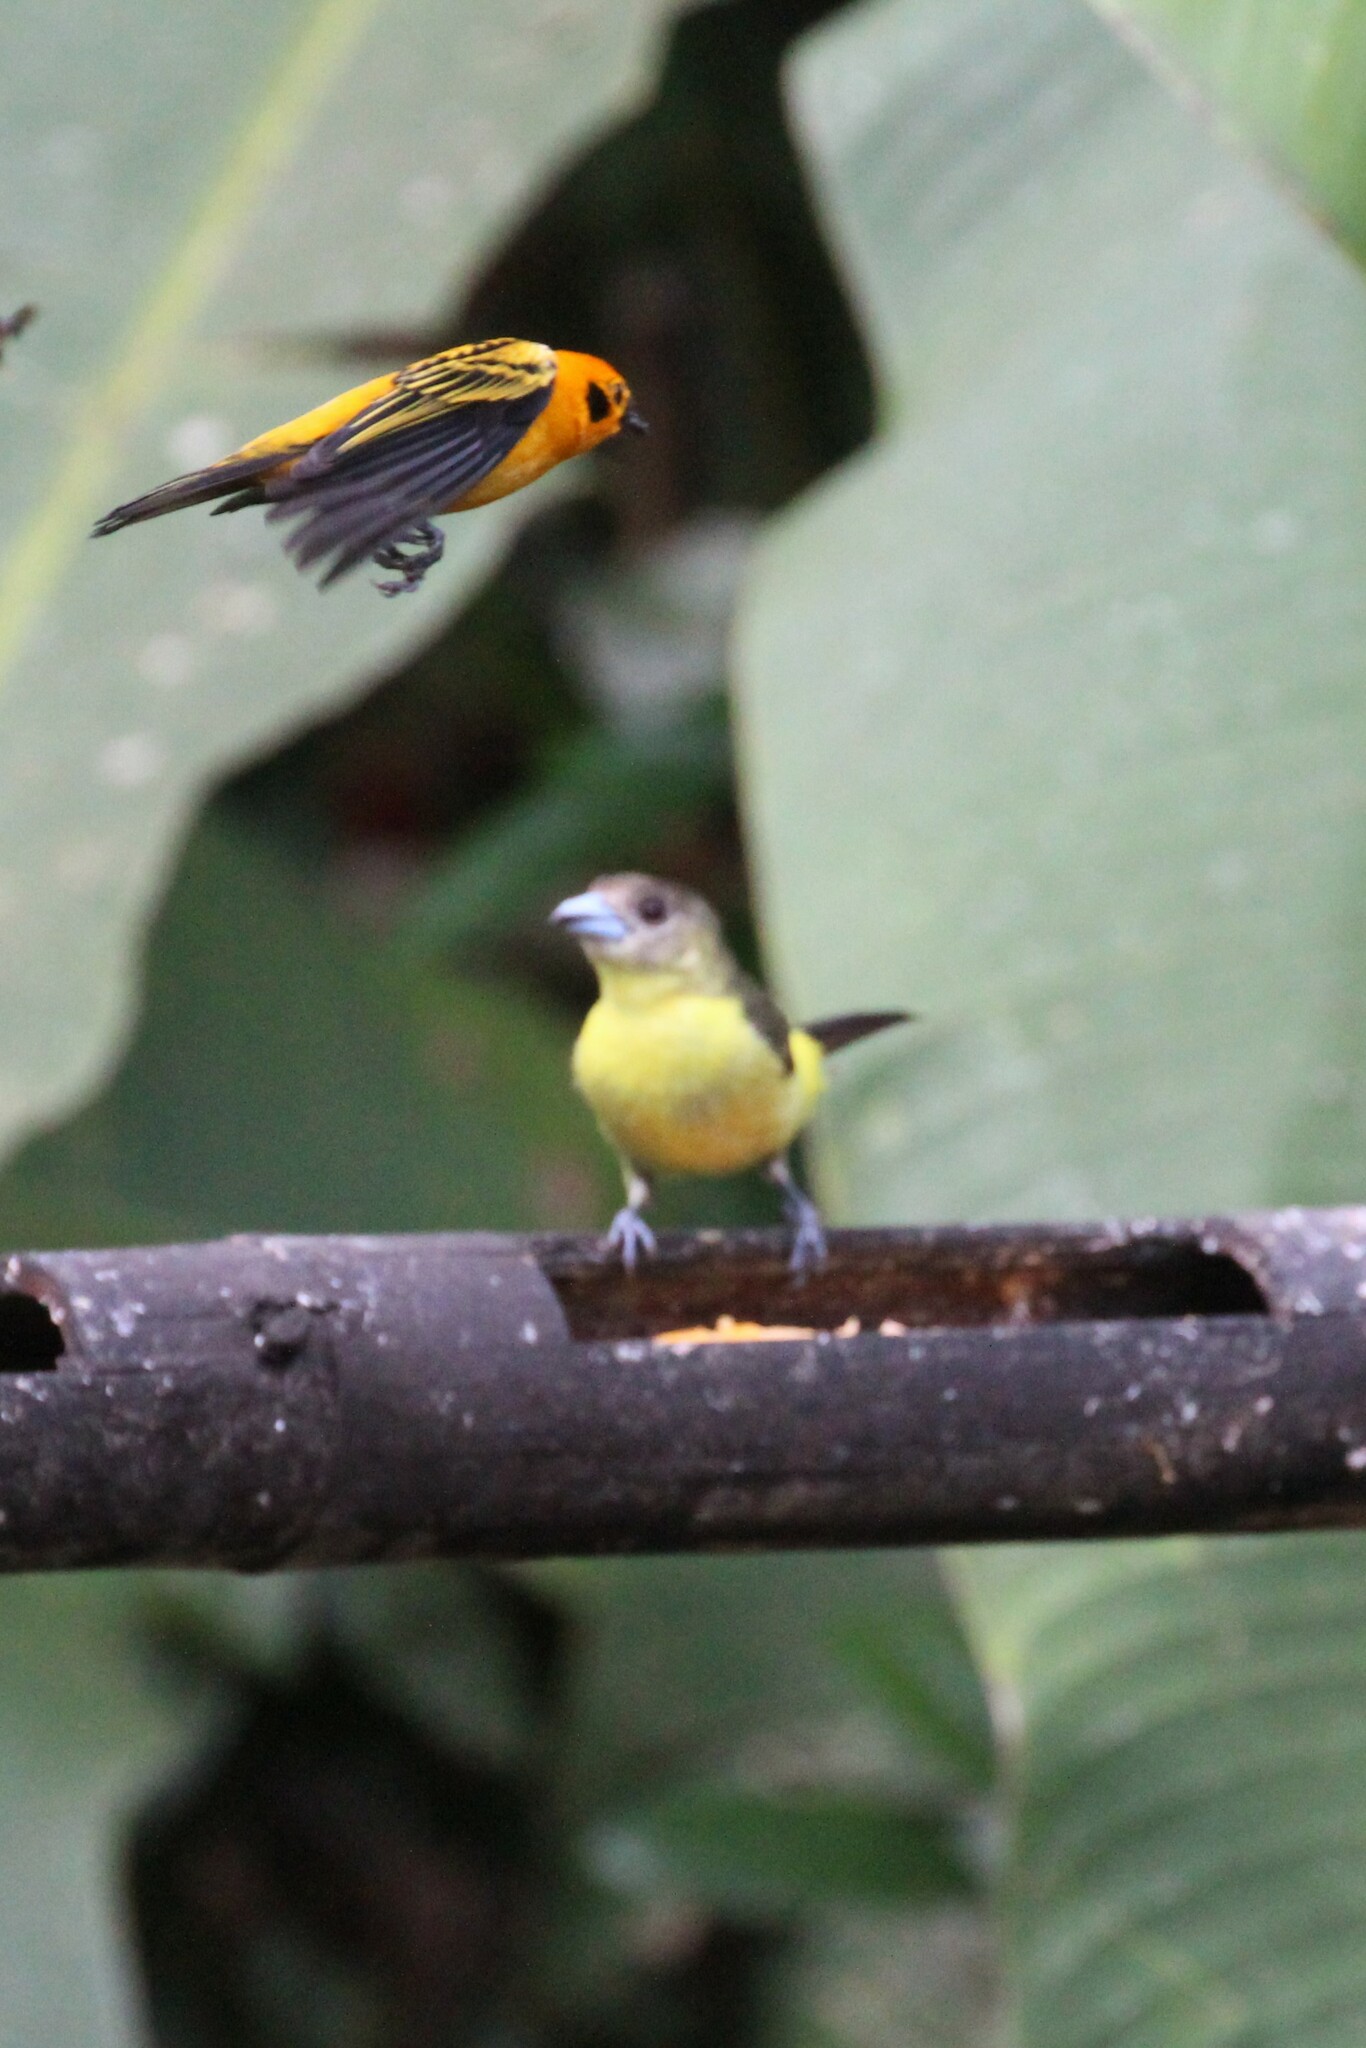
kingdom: Animalia
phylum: Chordata
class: Aves
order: Passeriformes
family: Thraupidae
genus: Tangara
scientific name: Tangara arthus
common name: Golden tanager
